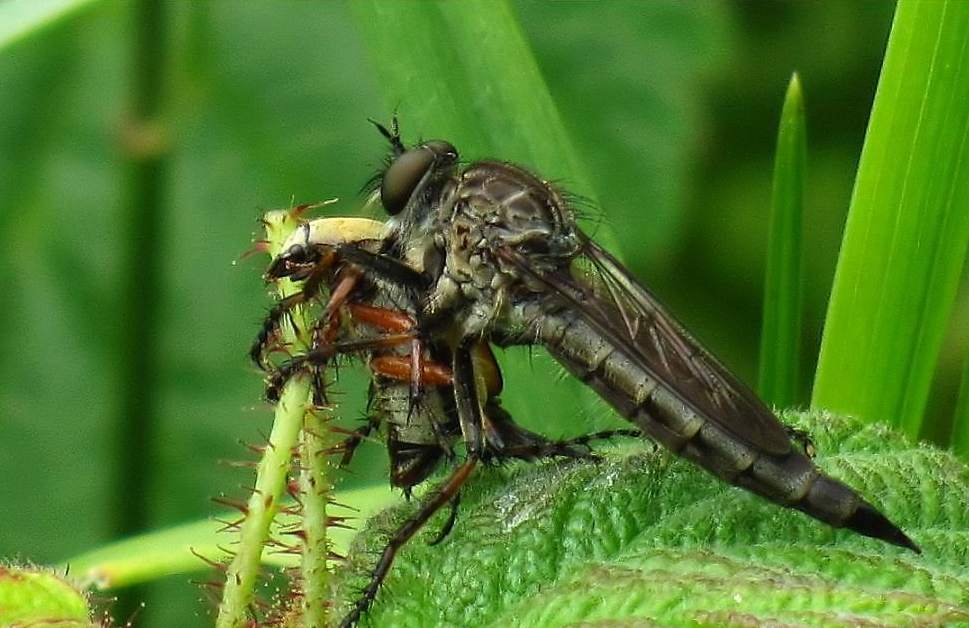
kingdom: Animalia
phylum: Arthropoda
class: Insecta
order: Coleoptera
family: Scarabaeidae
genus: Macrodactylus
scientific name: Macrodactylus subspinosus
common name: American rose chafer
